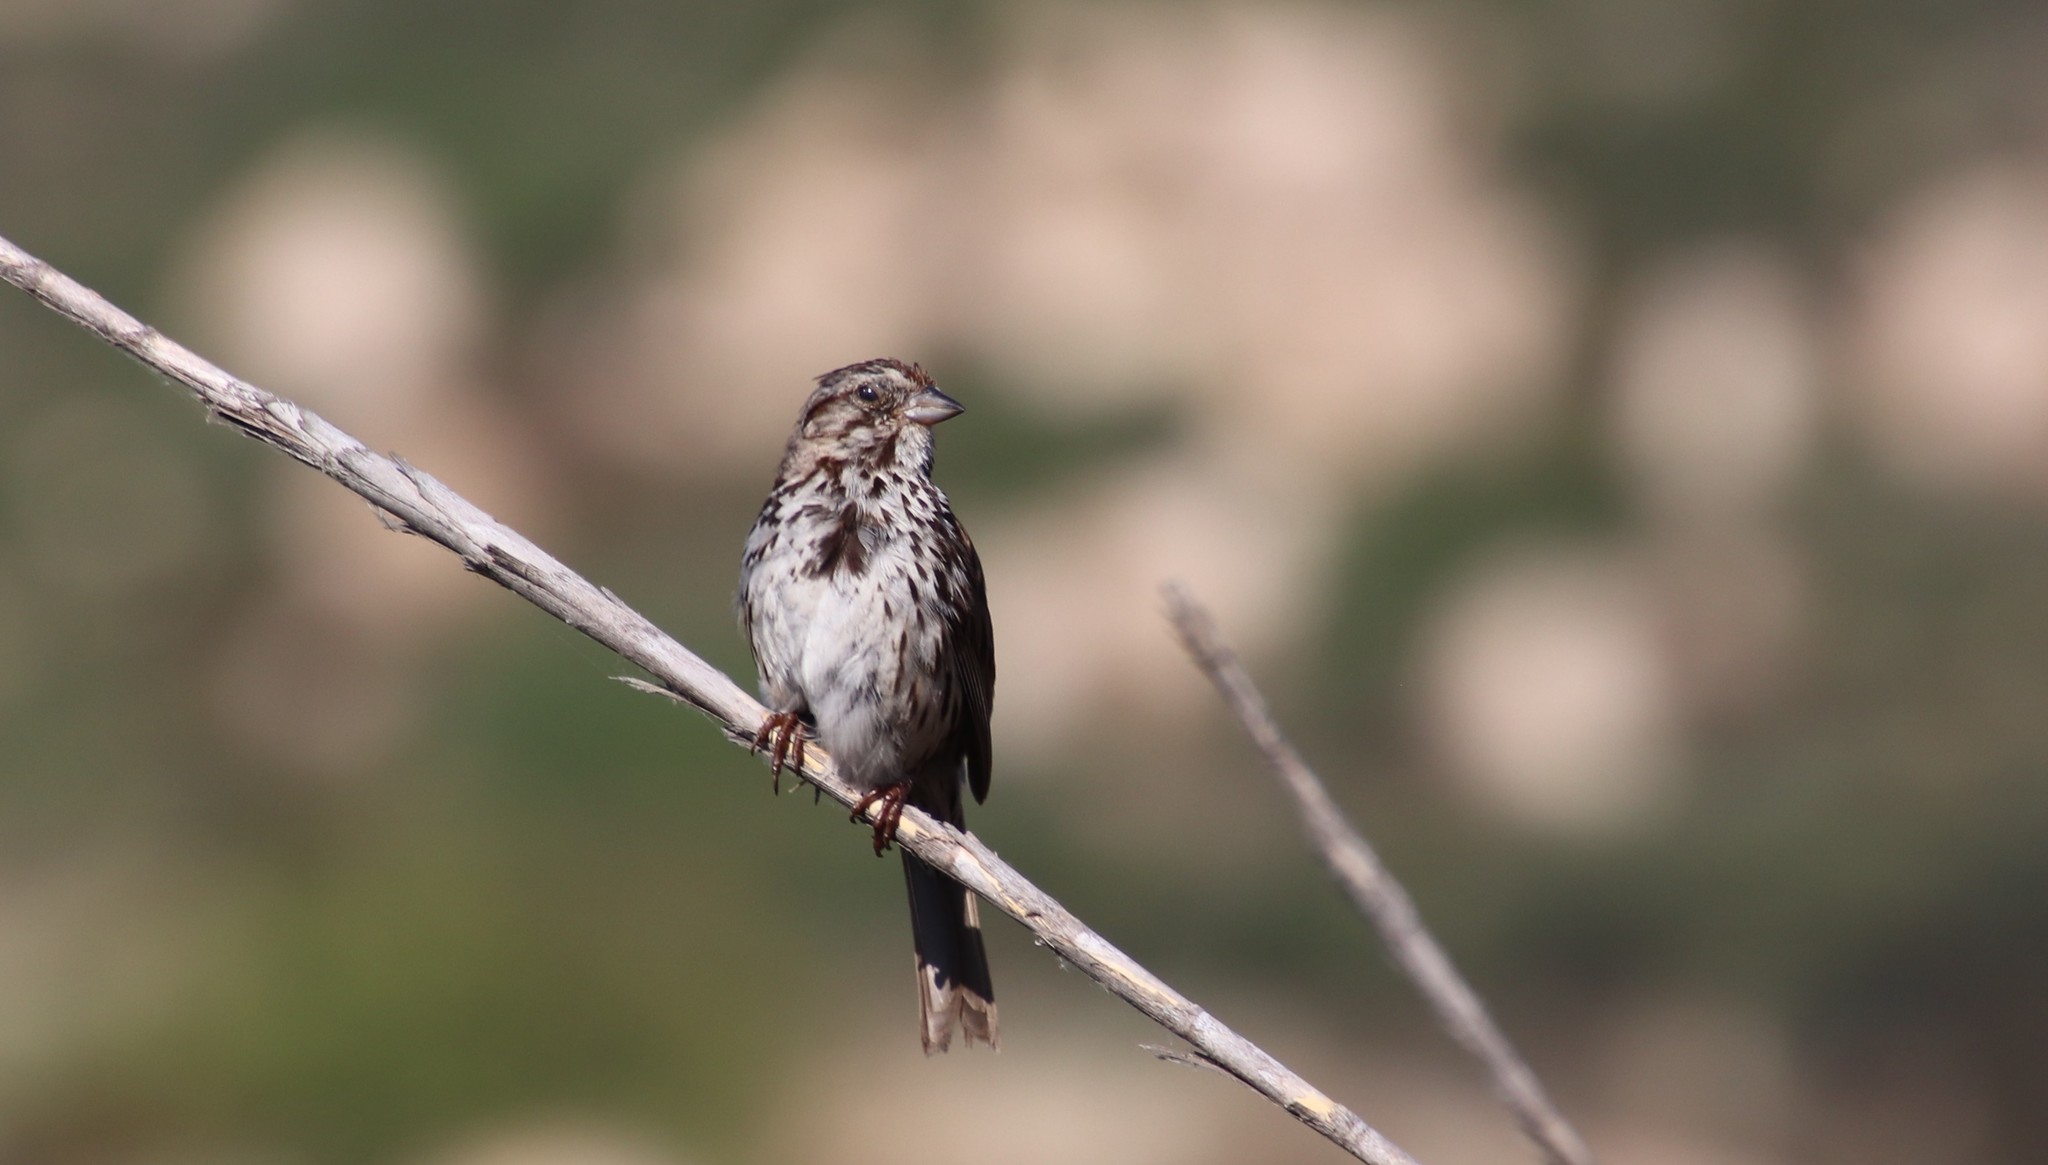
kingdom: Animalia
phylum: Chordata
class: Aves
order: Passeriformes
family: Passerellidae
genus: Melospiza
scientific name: Melospiza melodia
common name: Song sparrow
